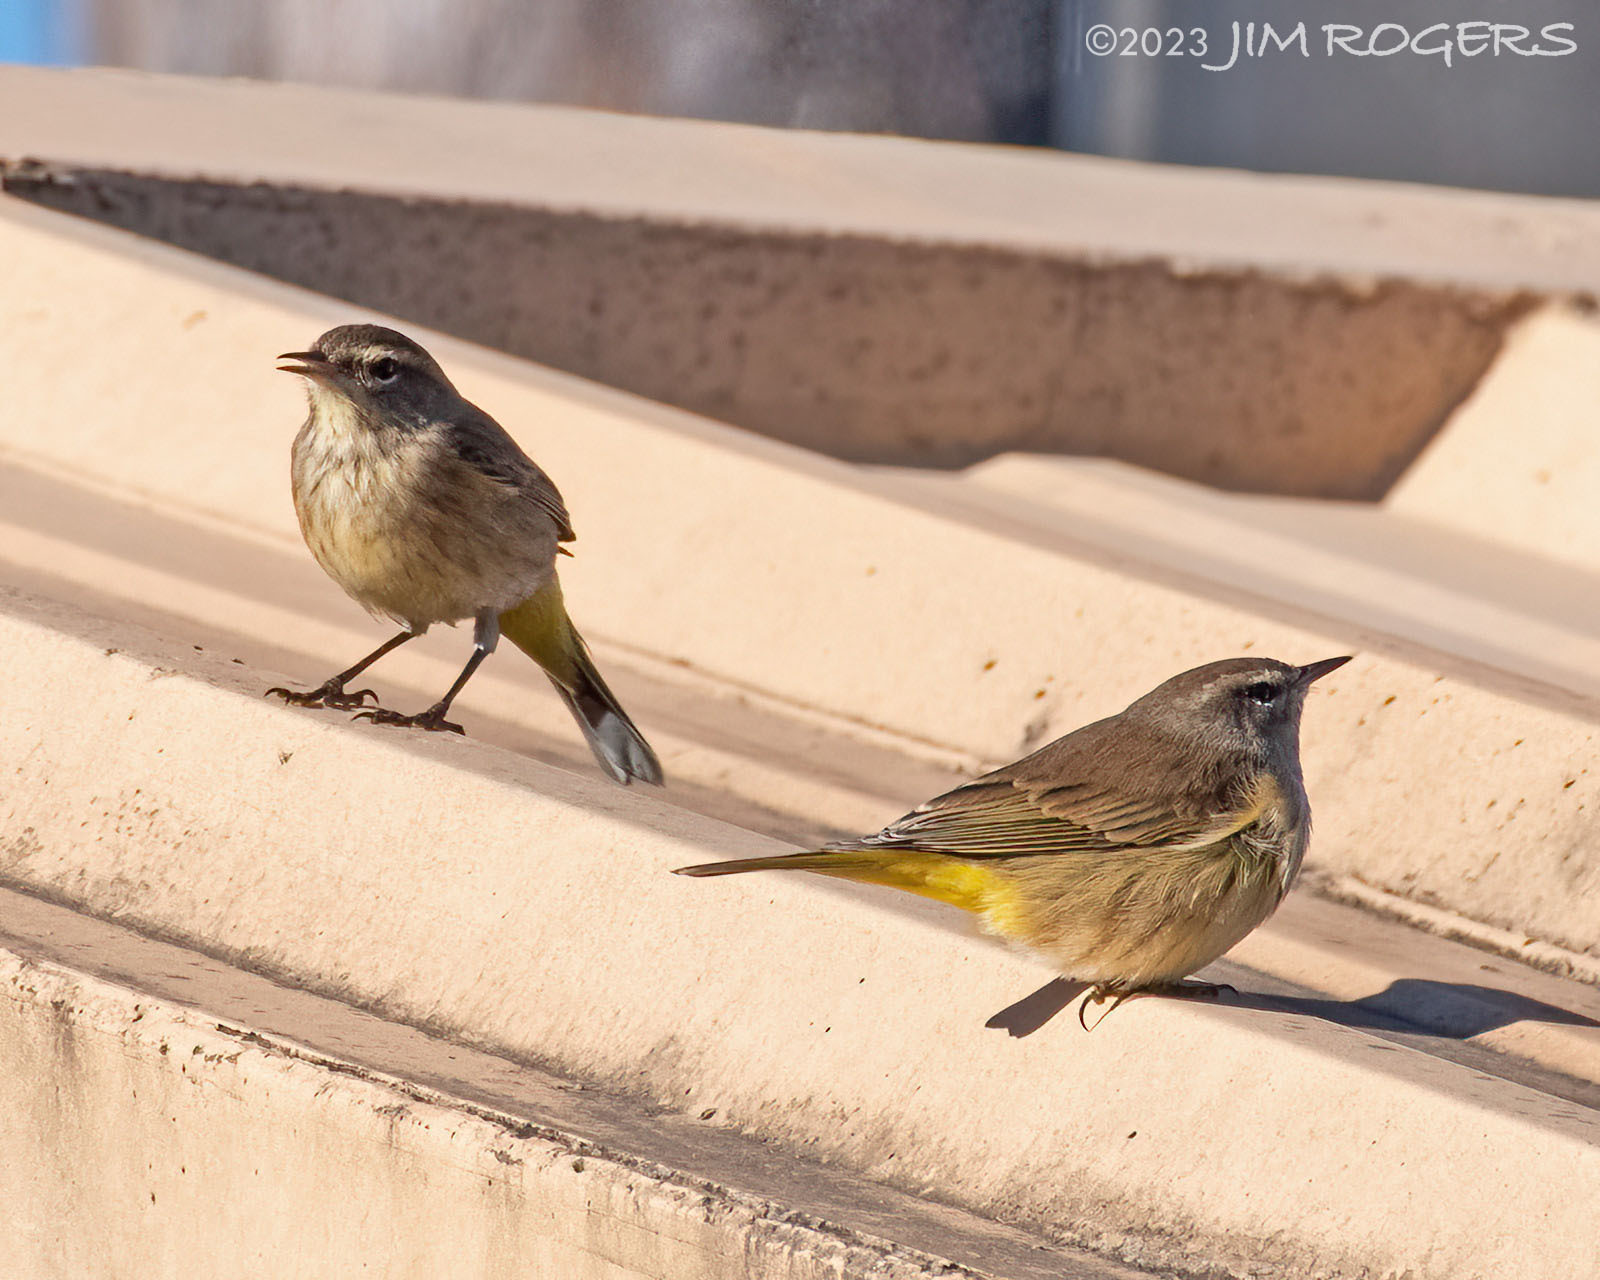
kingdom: Animalia
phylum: Chordata
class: Aves
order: Passeriformes
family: Parulidae
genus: Setophaga
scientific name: Setophaga palmarum
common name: Palm warbler
